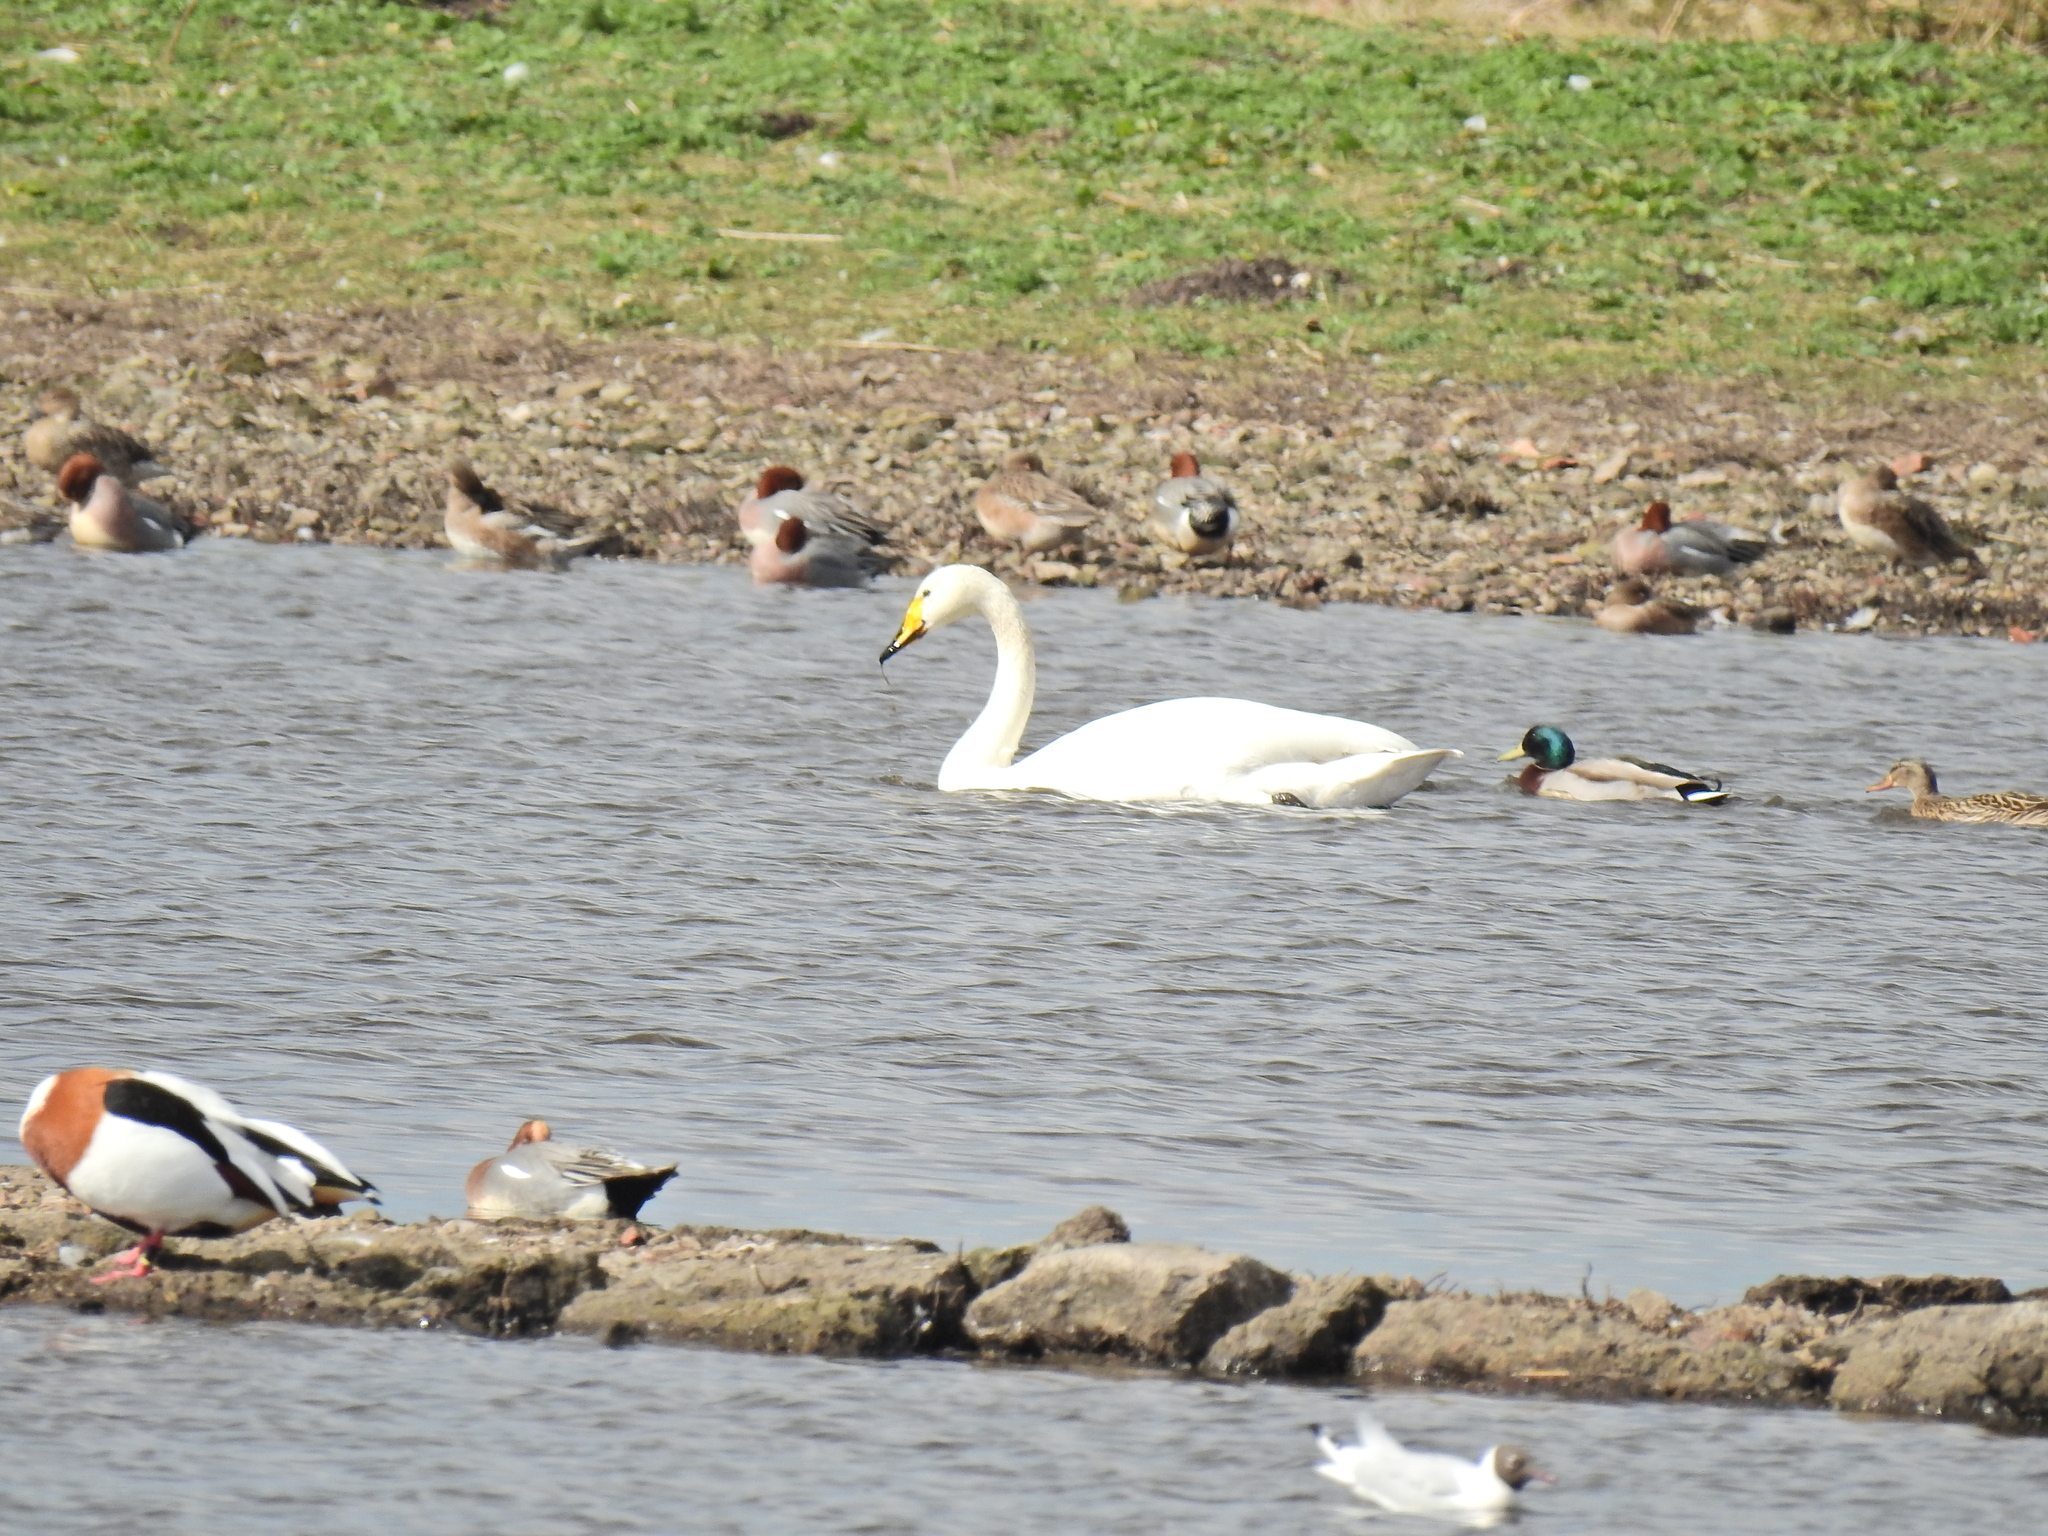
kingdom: Animalia
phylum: Chordata
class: Aves
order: Anseriformes
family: Anatidae
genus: Cygnus
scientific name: Cygnus cygnus
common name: Whooper swan
